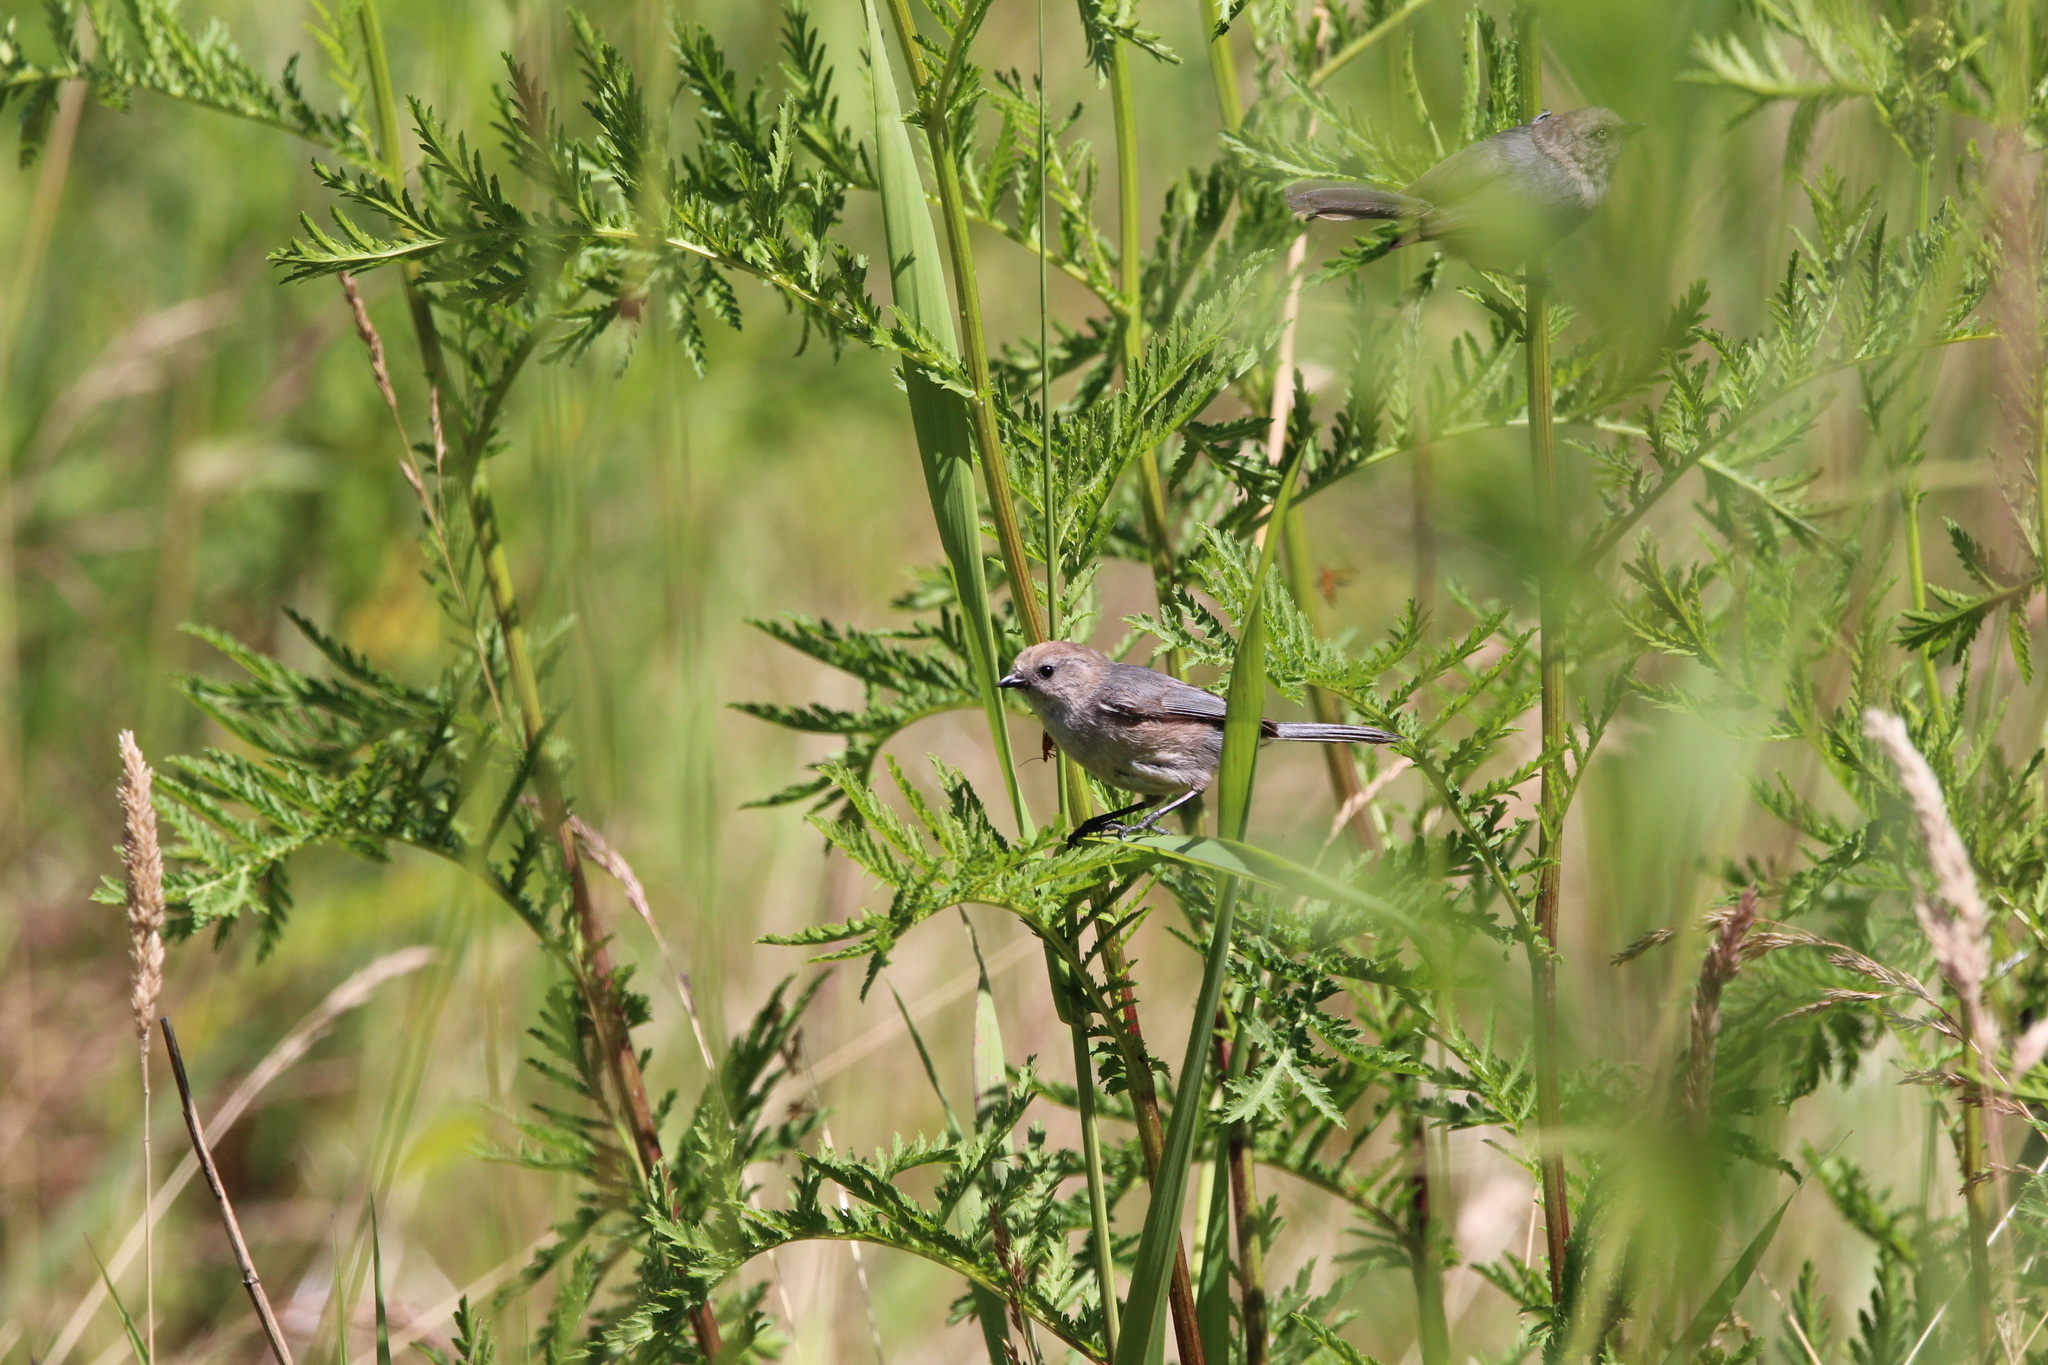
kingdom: Animalia
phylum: Chordata
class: Aves
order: Passeriformes
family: Aegithalidae
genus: Psaltriparus
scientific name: Psaltriparus minimus
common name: American bushtit
